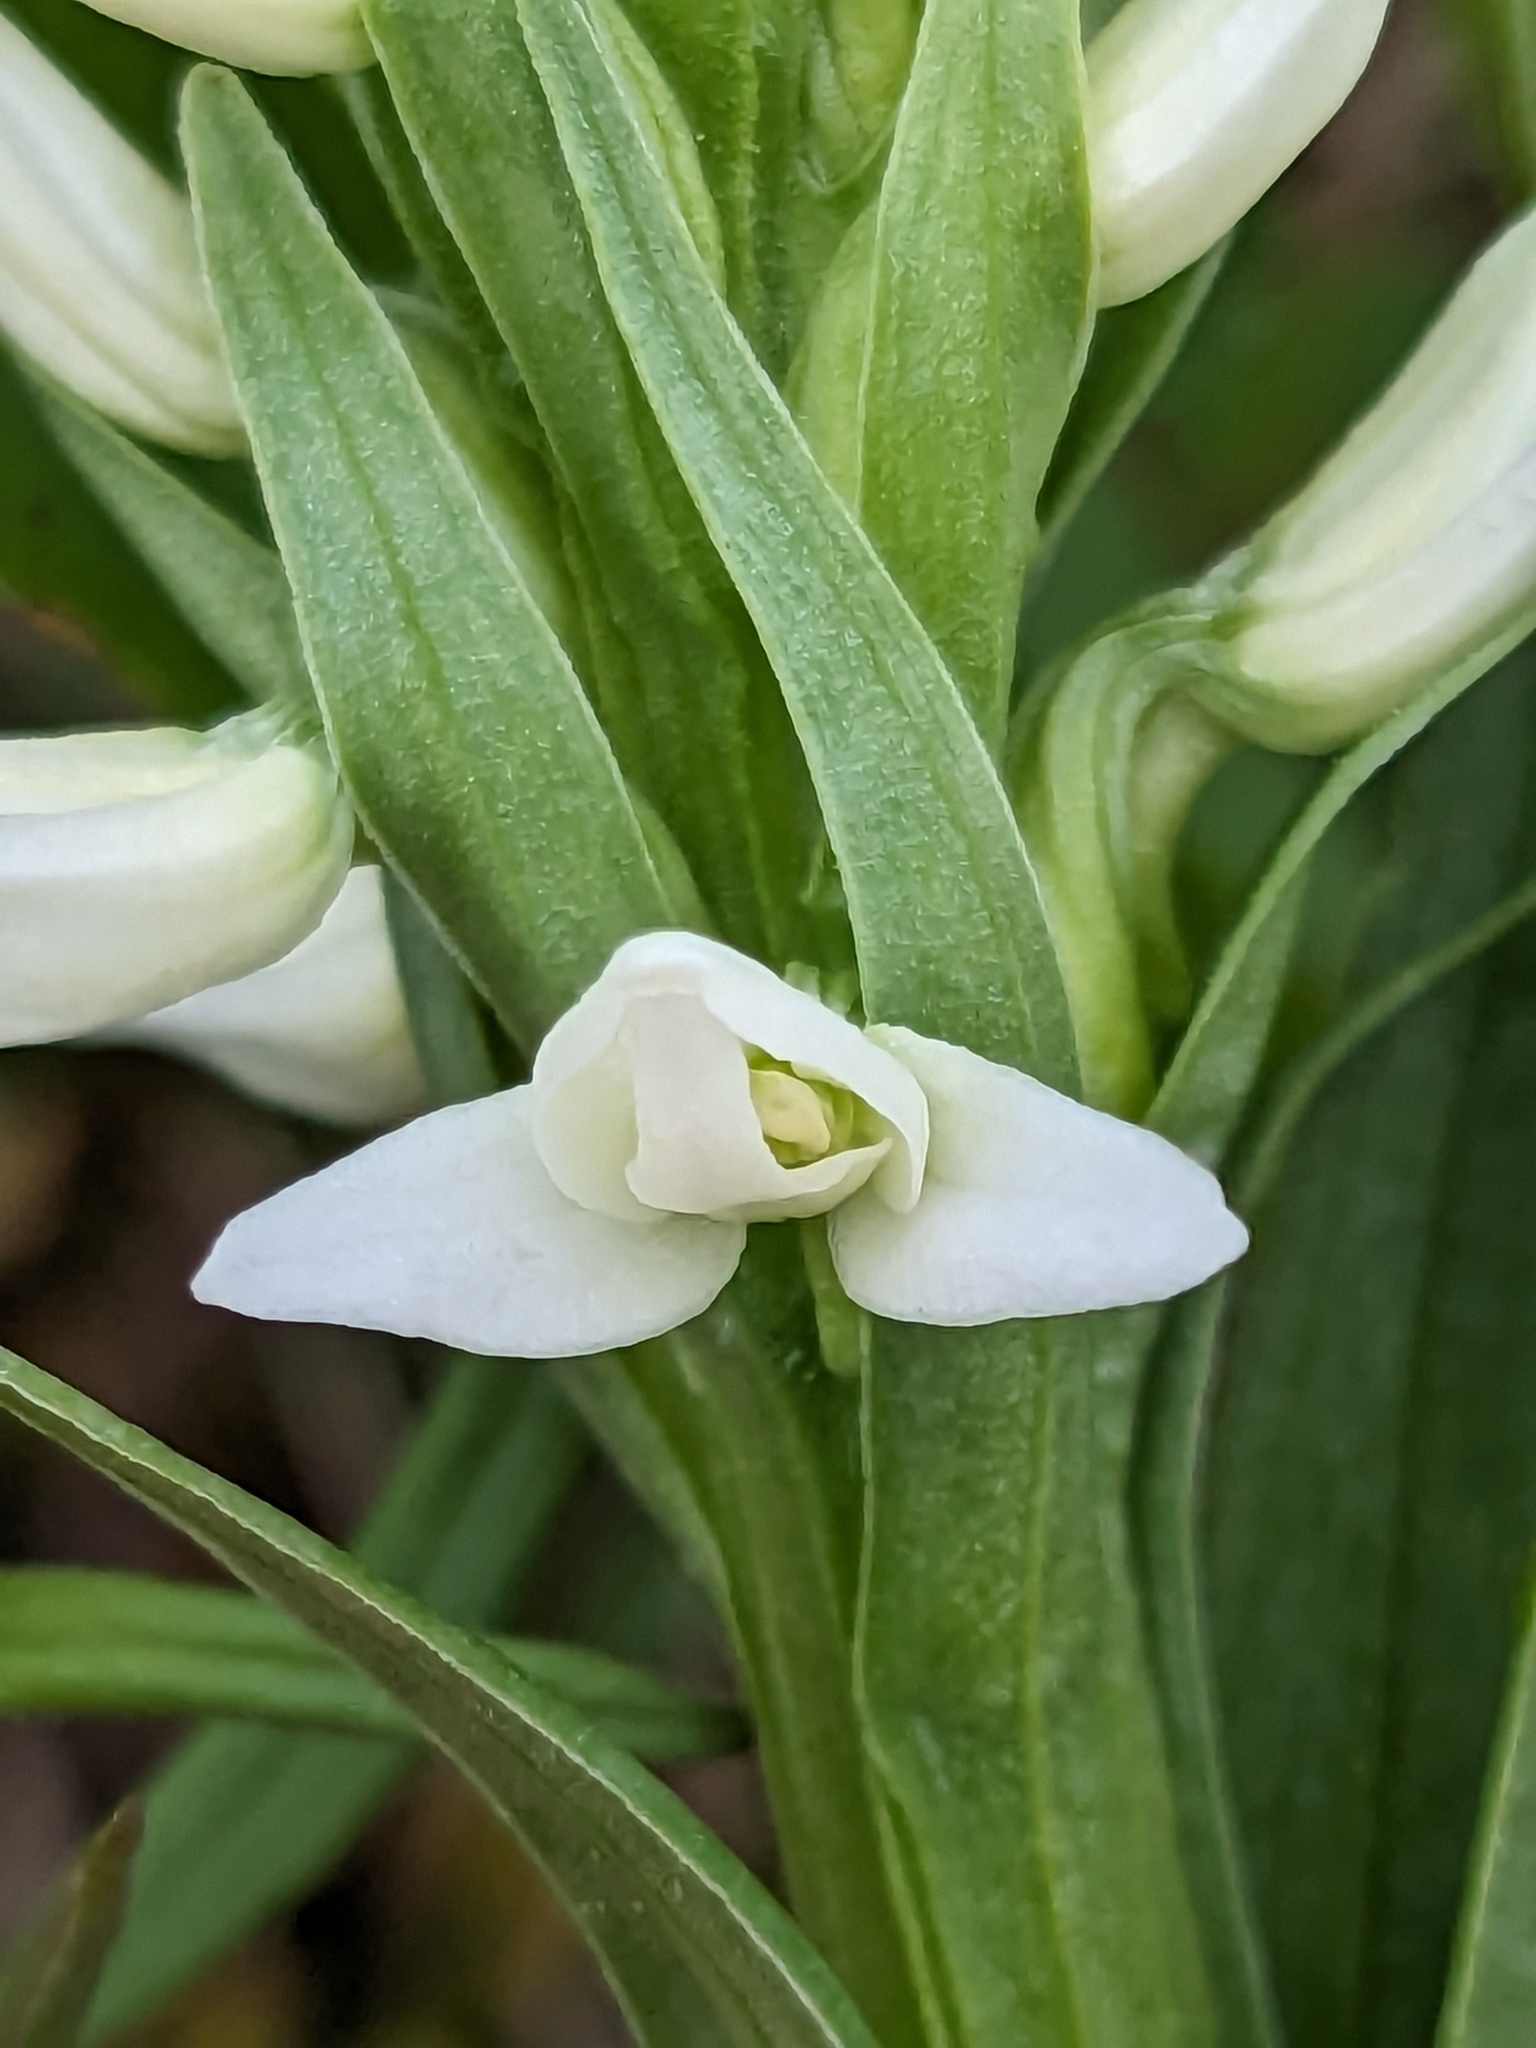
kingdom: Plantae
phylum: Tracheophyta
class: Liliopsida
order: Asparagales
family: Orchidaceae
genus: Platanthera
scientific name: Platanthera dilatata
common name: Bog candles
